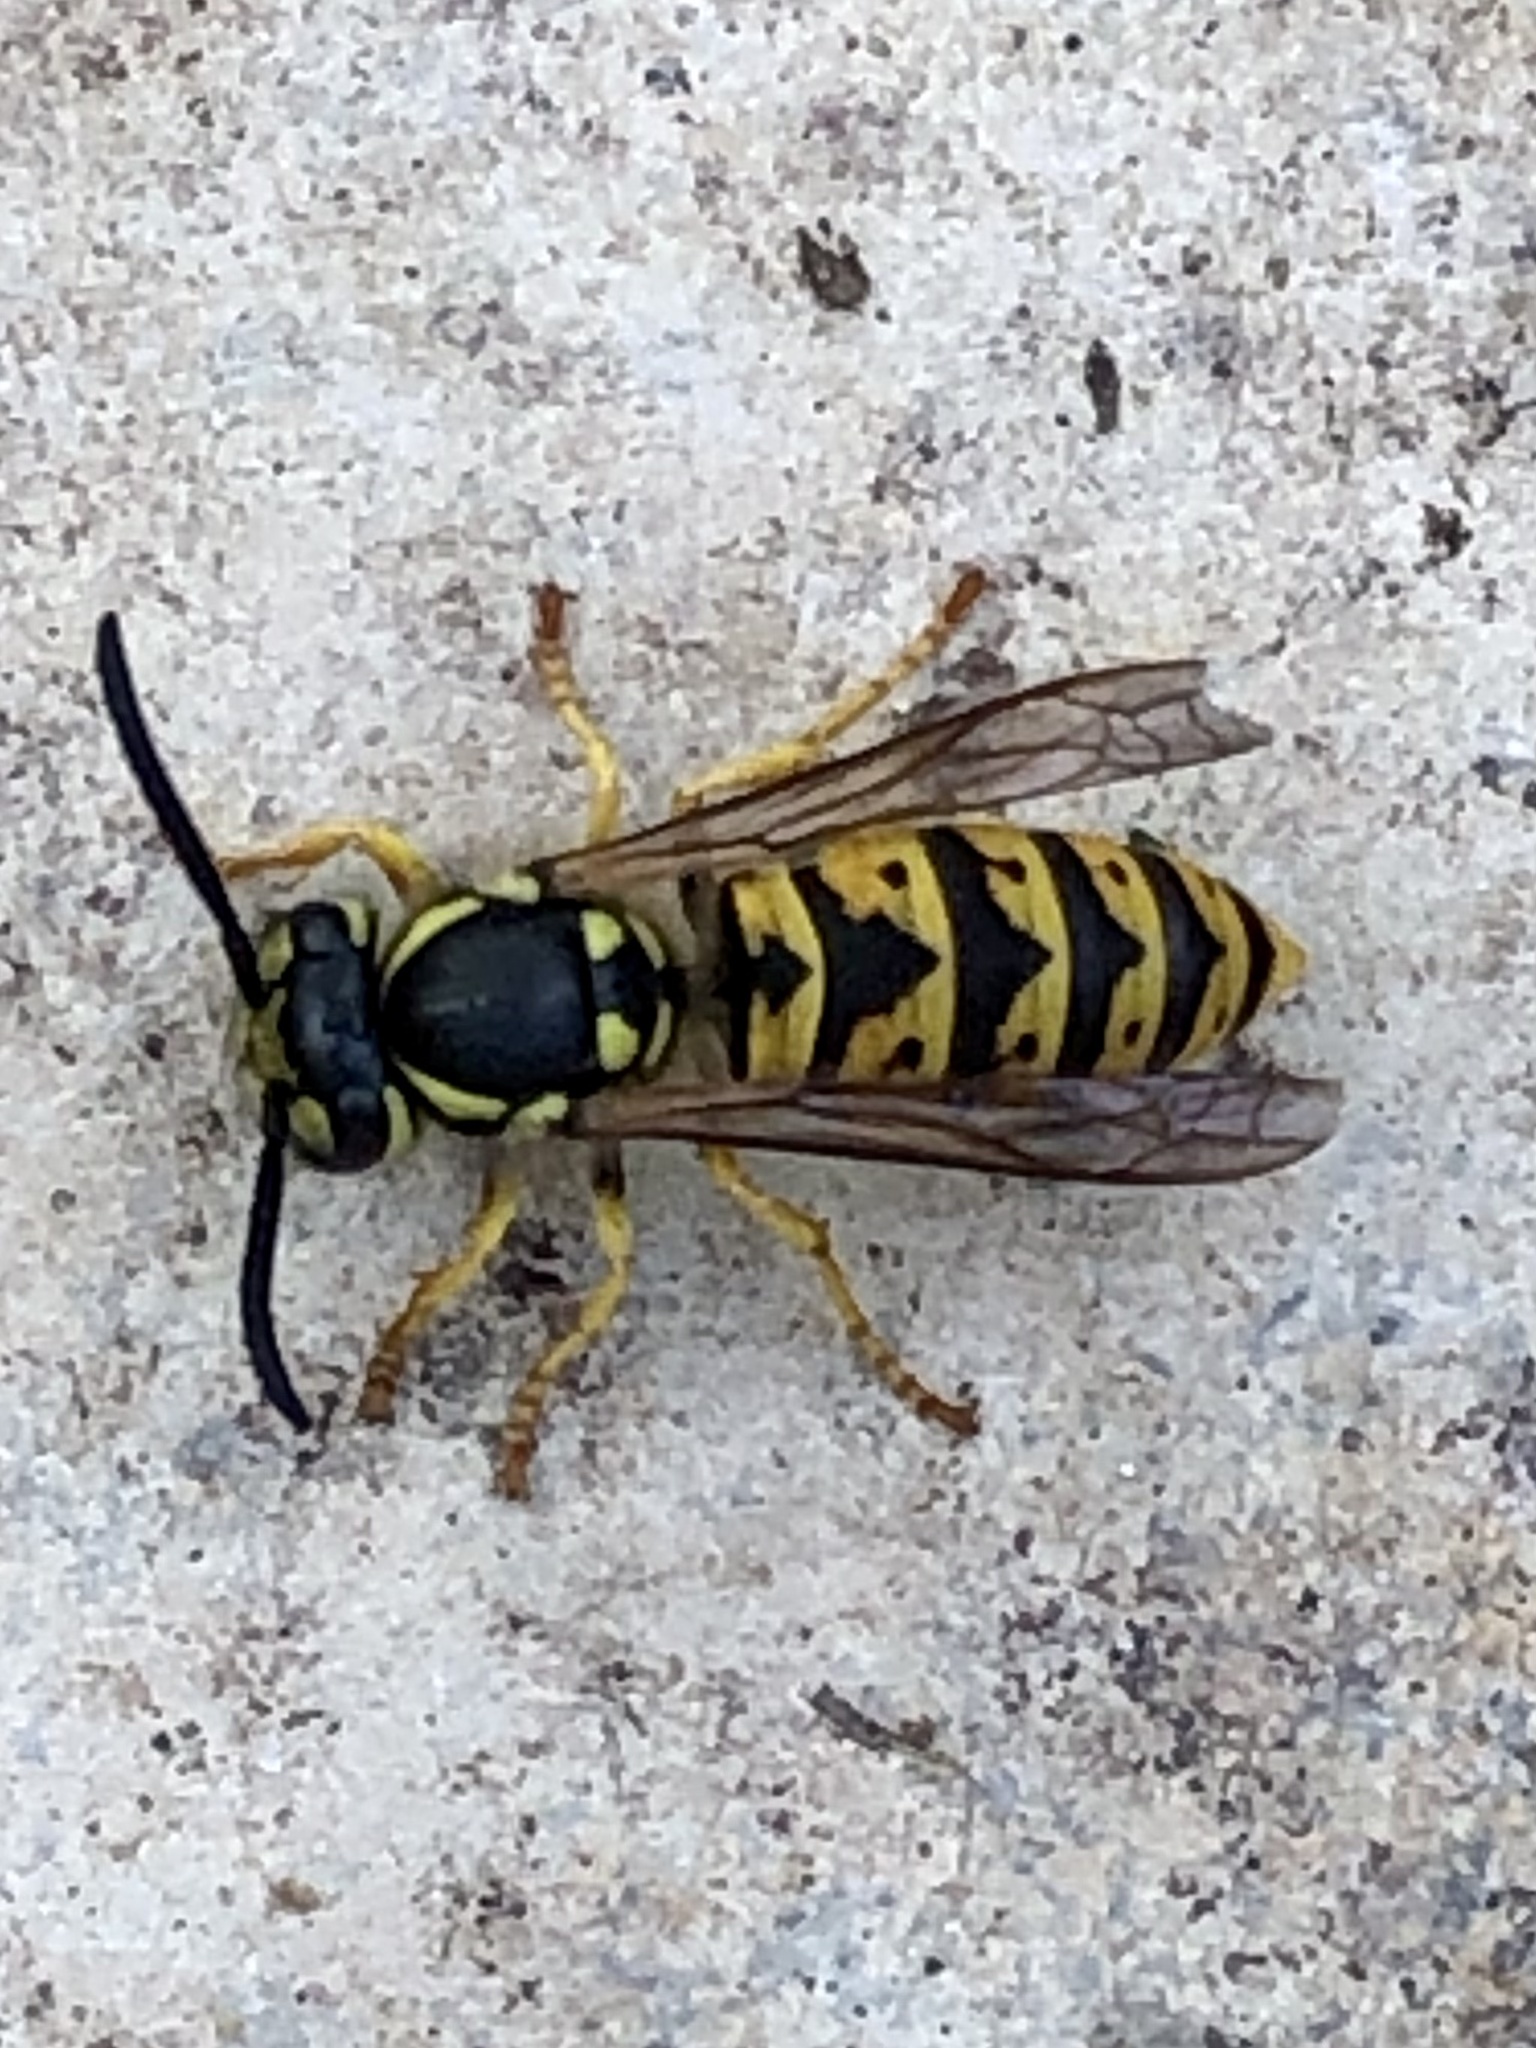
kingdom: Animalia
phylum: Arthropoda
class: Insecta
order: Hymenoptera
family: Vespidae
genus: Vespula
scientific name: Vespula germanica
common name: German wasp
